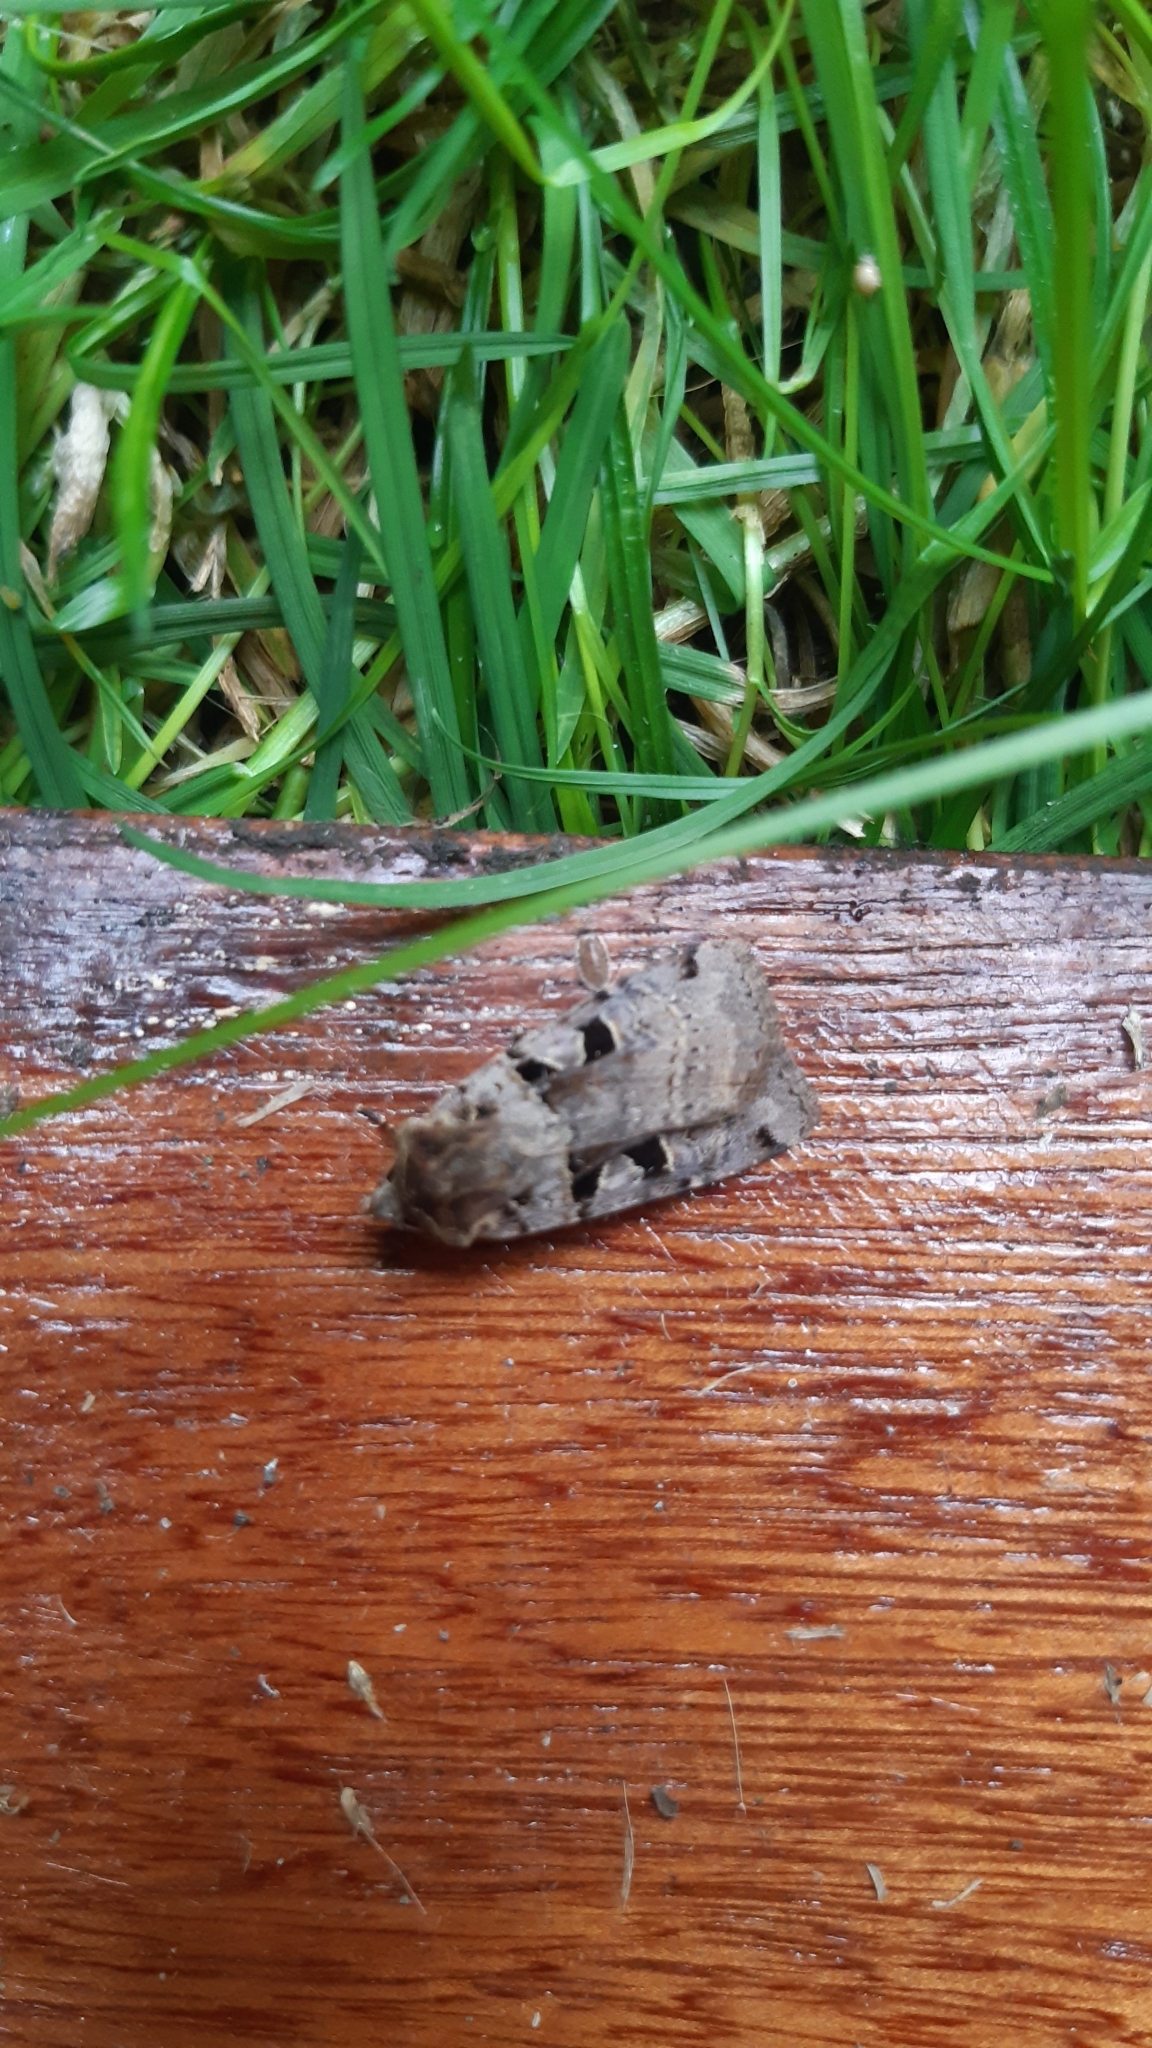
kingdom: Animalia
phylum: Arthropoda
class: Insecta
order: Lepidoptera
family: Noctuidae
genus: Xestia
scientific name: Xestia triangulum
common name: Double square-spot
